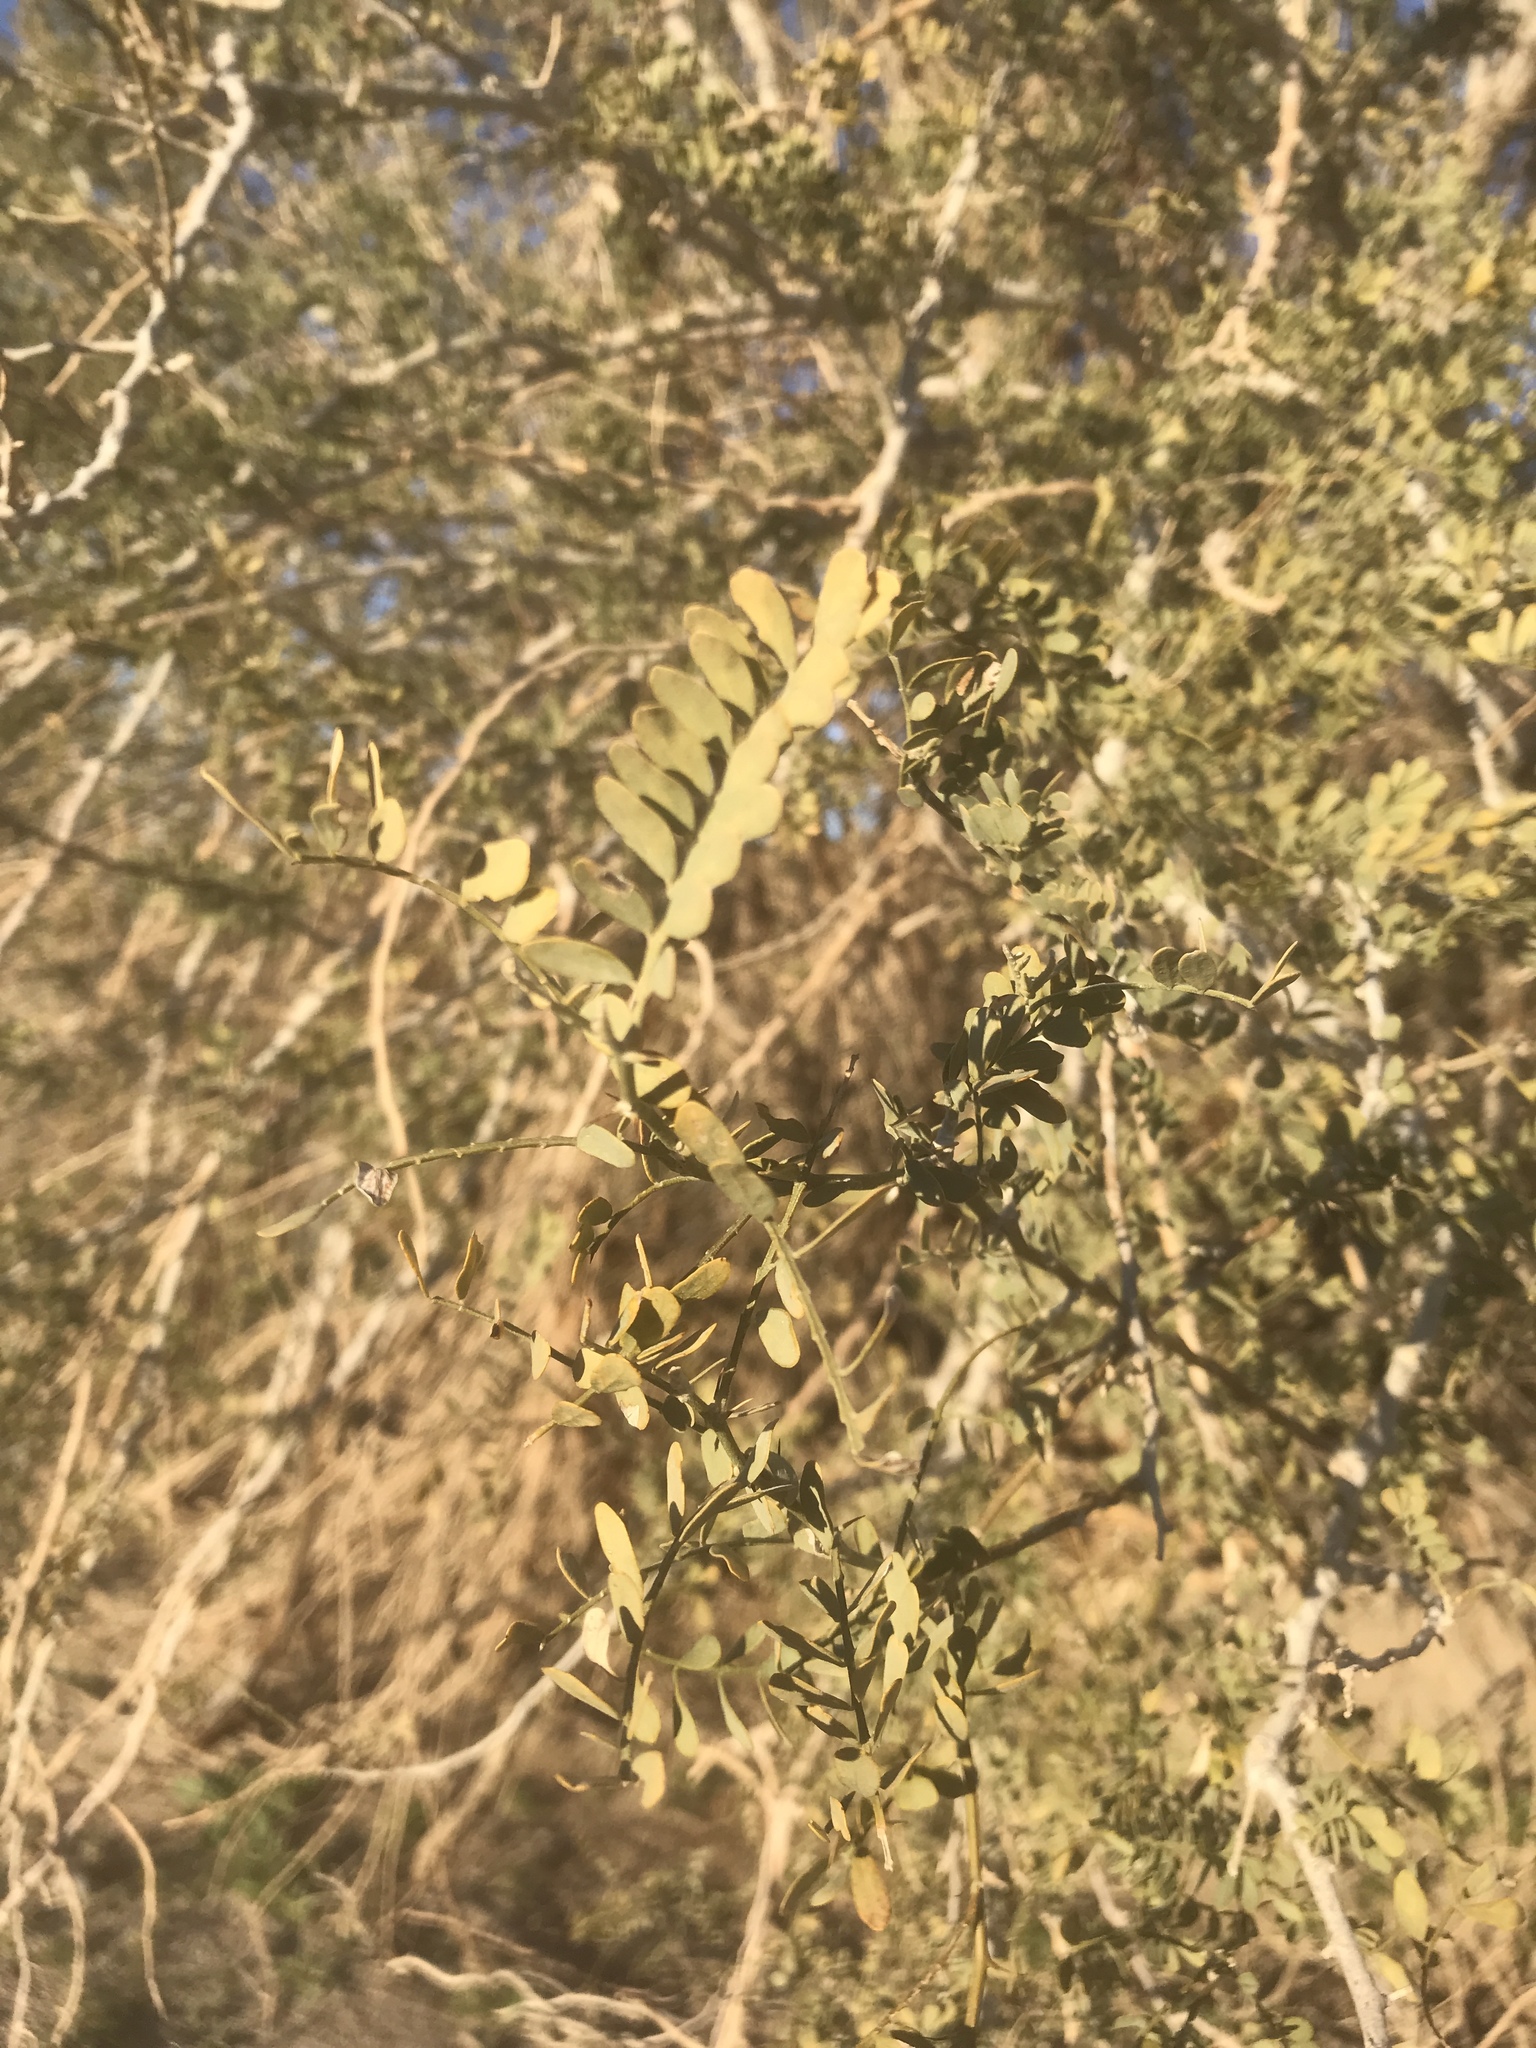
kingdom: Plantae
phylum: Tracheophyta
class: Magnoliopsida
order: Fabales
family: Fabaceae
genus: Olneya
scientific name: Olneya tesota
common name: Desert ironwood
